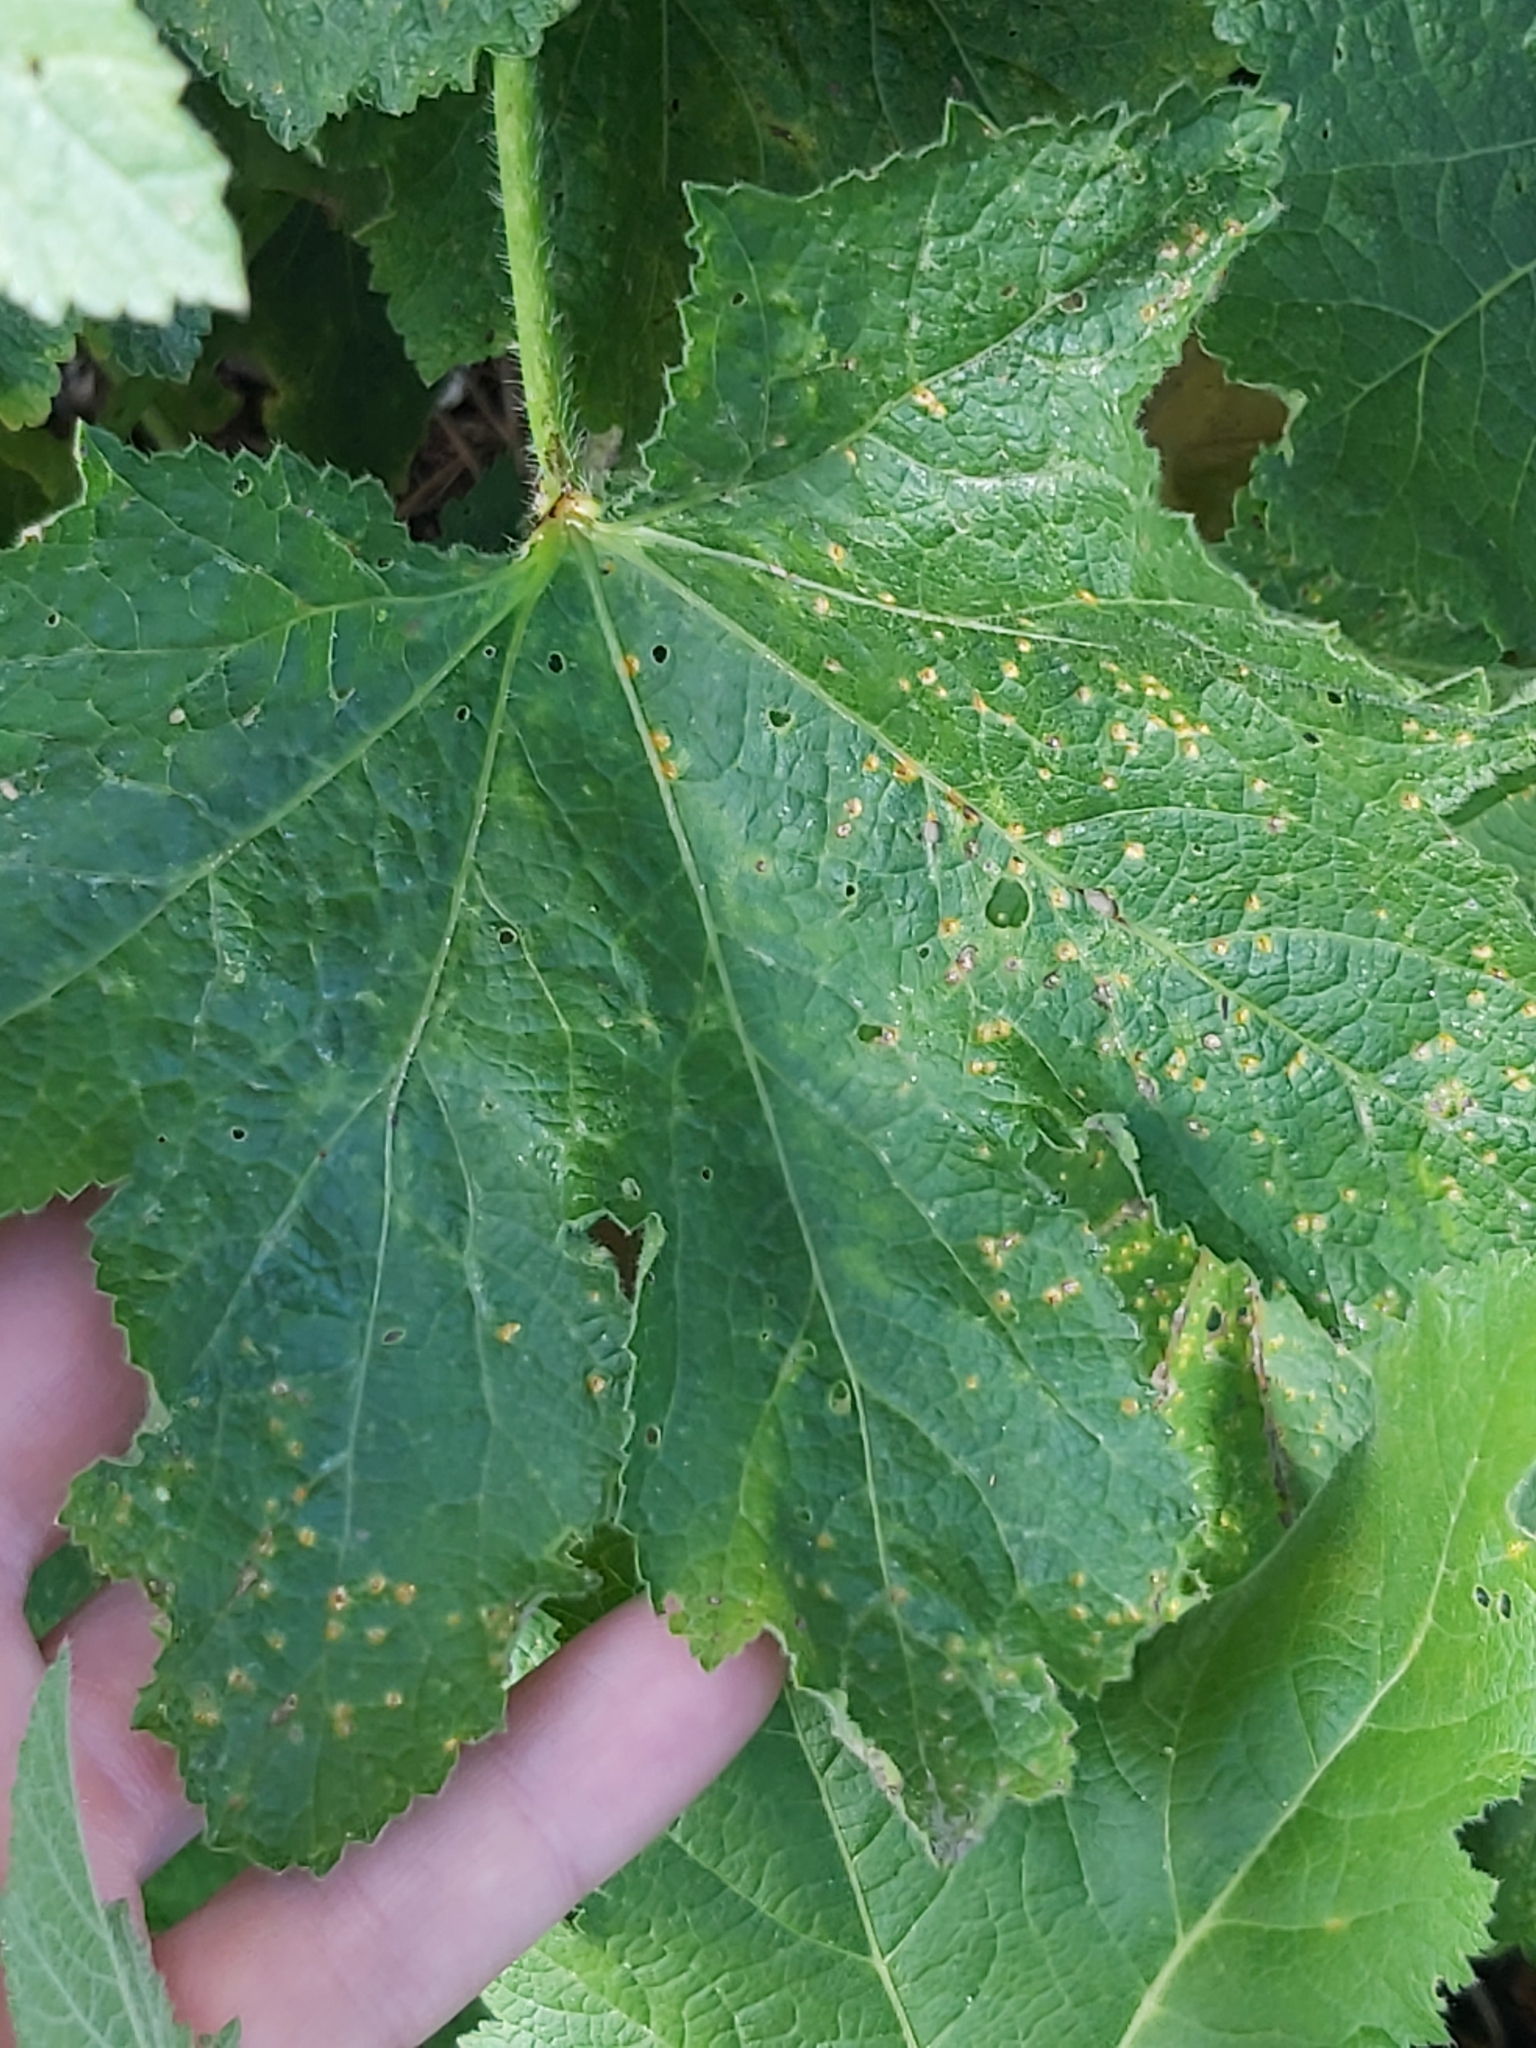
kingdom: Fungi
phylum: Basidiomycota
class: Pucciniomycetes
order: Pucciniales
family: Pucciniaceae
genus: Puccinia
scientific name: Puccinia malvacearum
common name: Hollyhock rust
